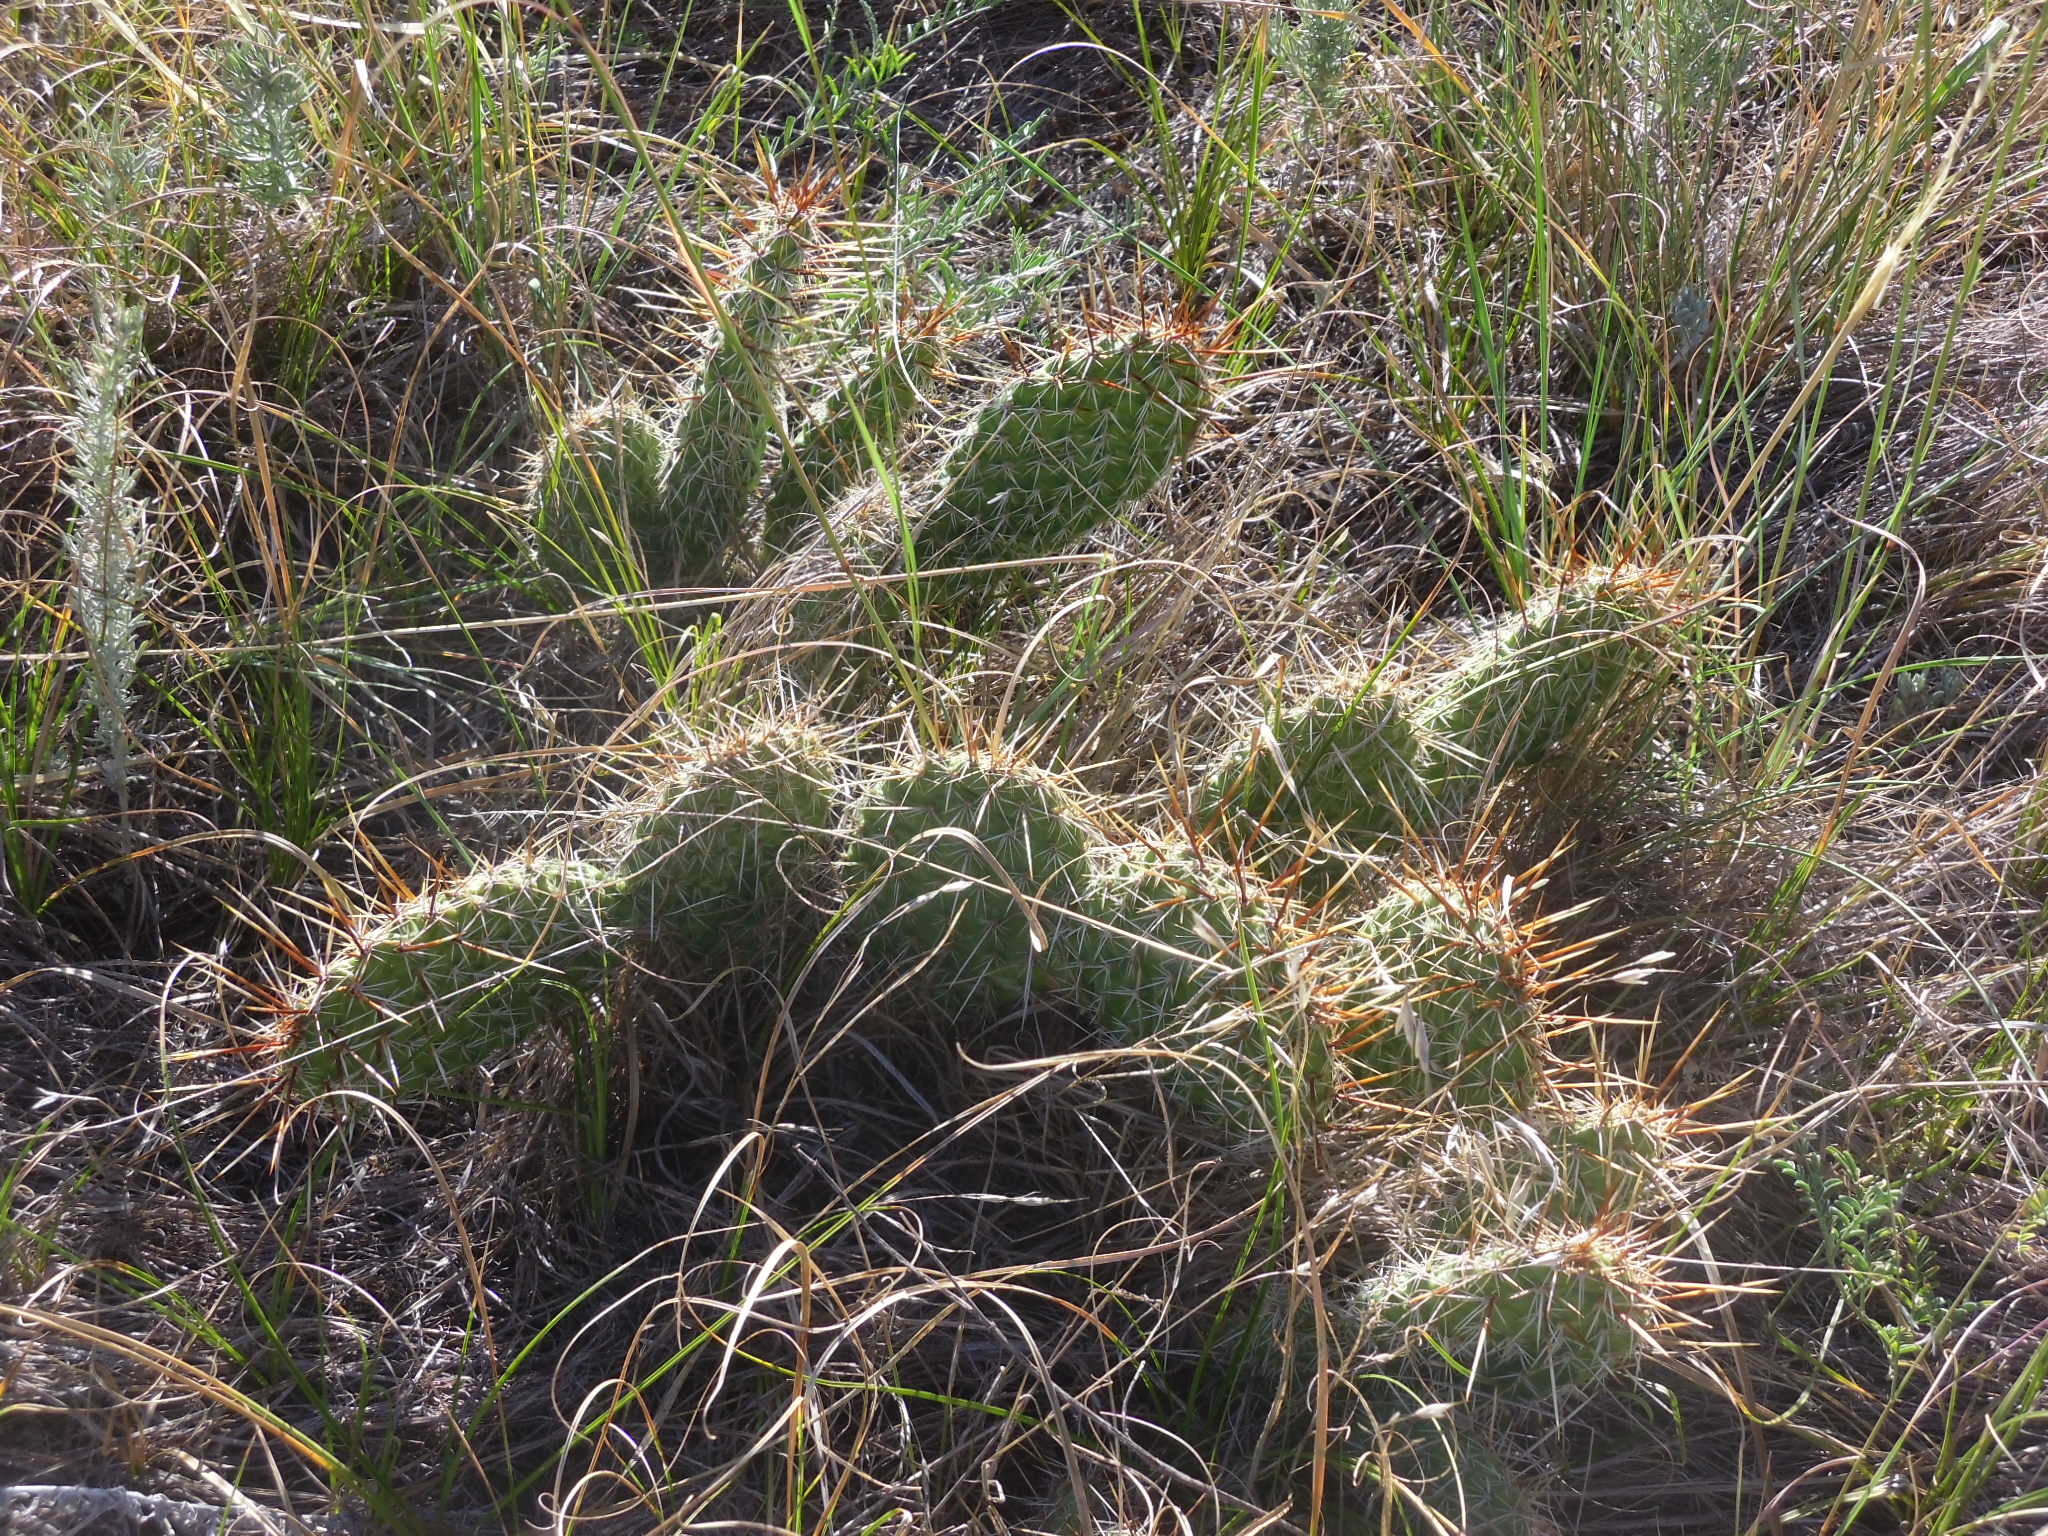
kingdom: Plantae
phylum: Tracheophyta
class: Magnoliopsida
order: Caryophyllales
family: Cactaceae
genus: Opuntia
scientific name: Opuntia polyacantha
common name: Plains prickly-pear
